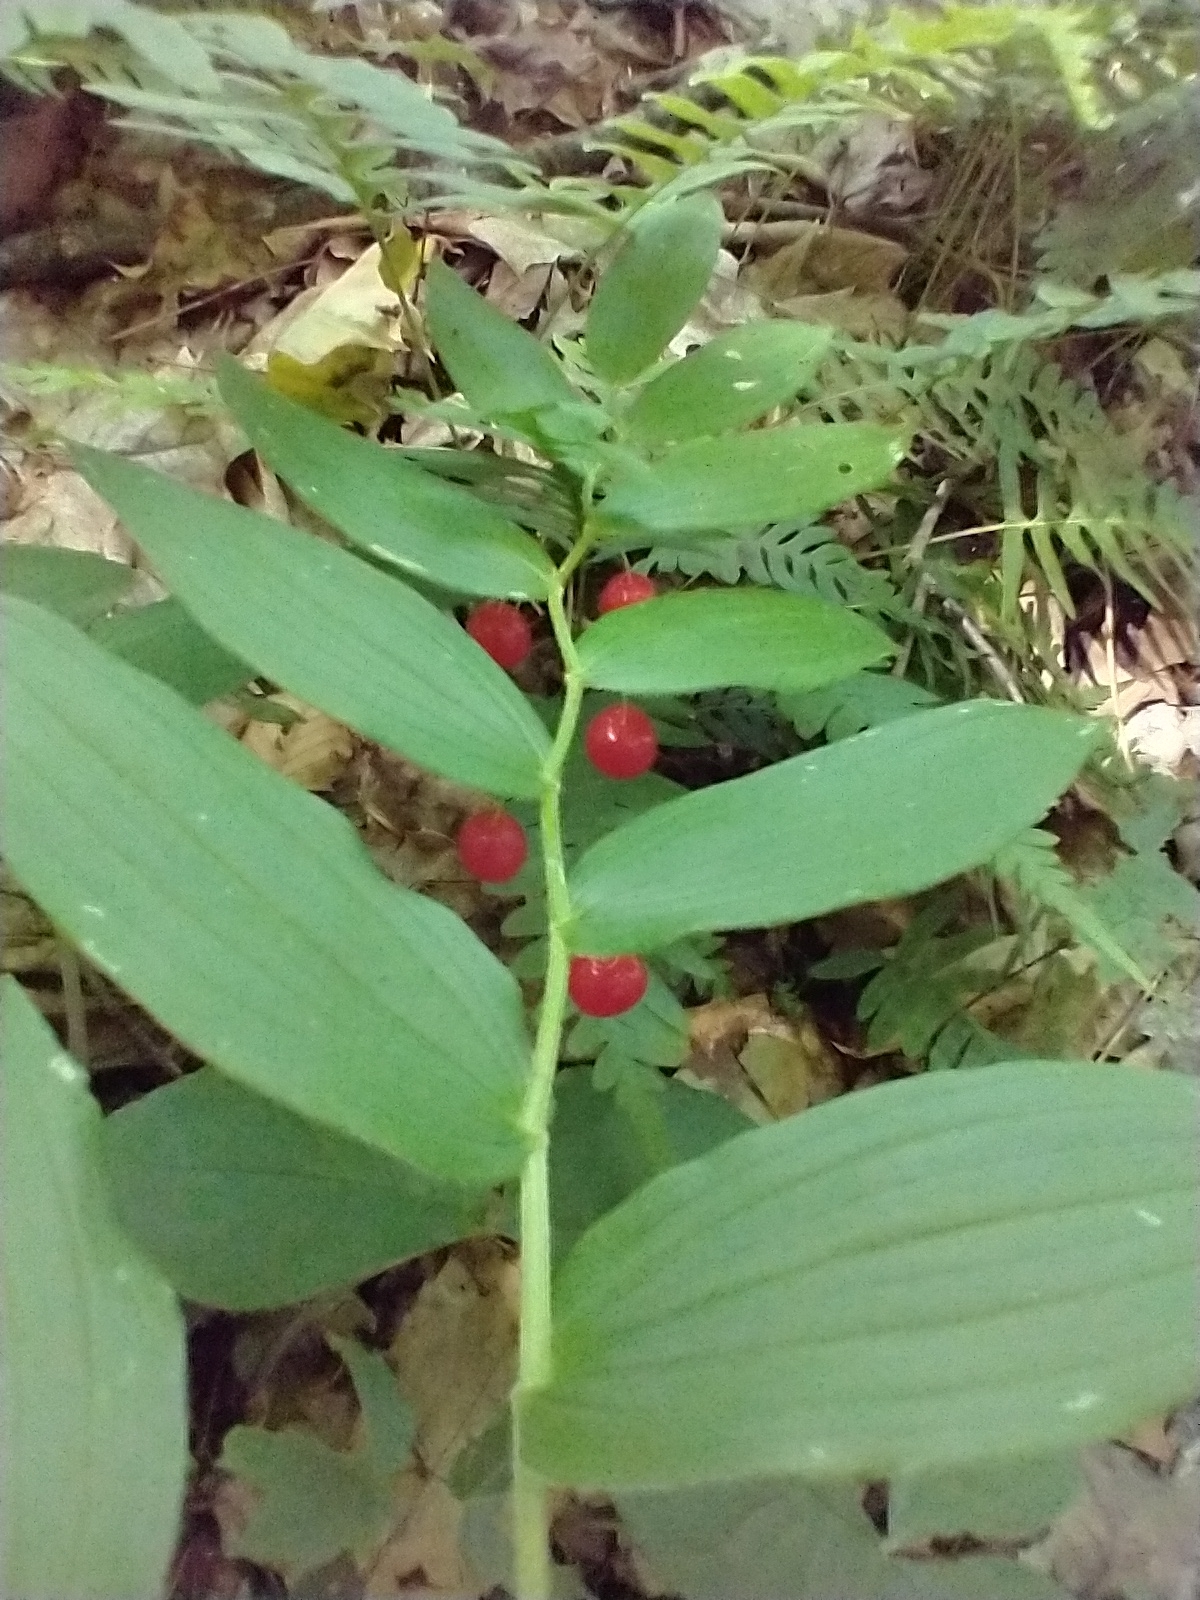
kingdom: Plantae
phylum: Tracheophyta
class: Liliopsida
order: Liliales
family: Liliaceae
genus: Streptopus
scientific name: Streptopus lanceolatus
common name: Rose mandarin
